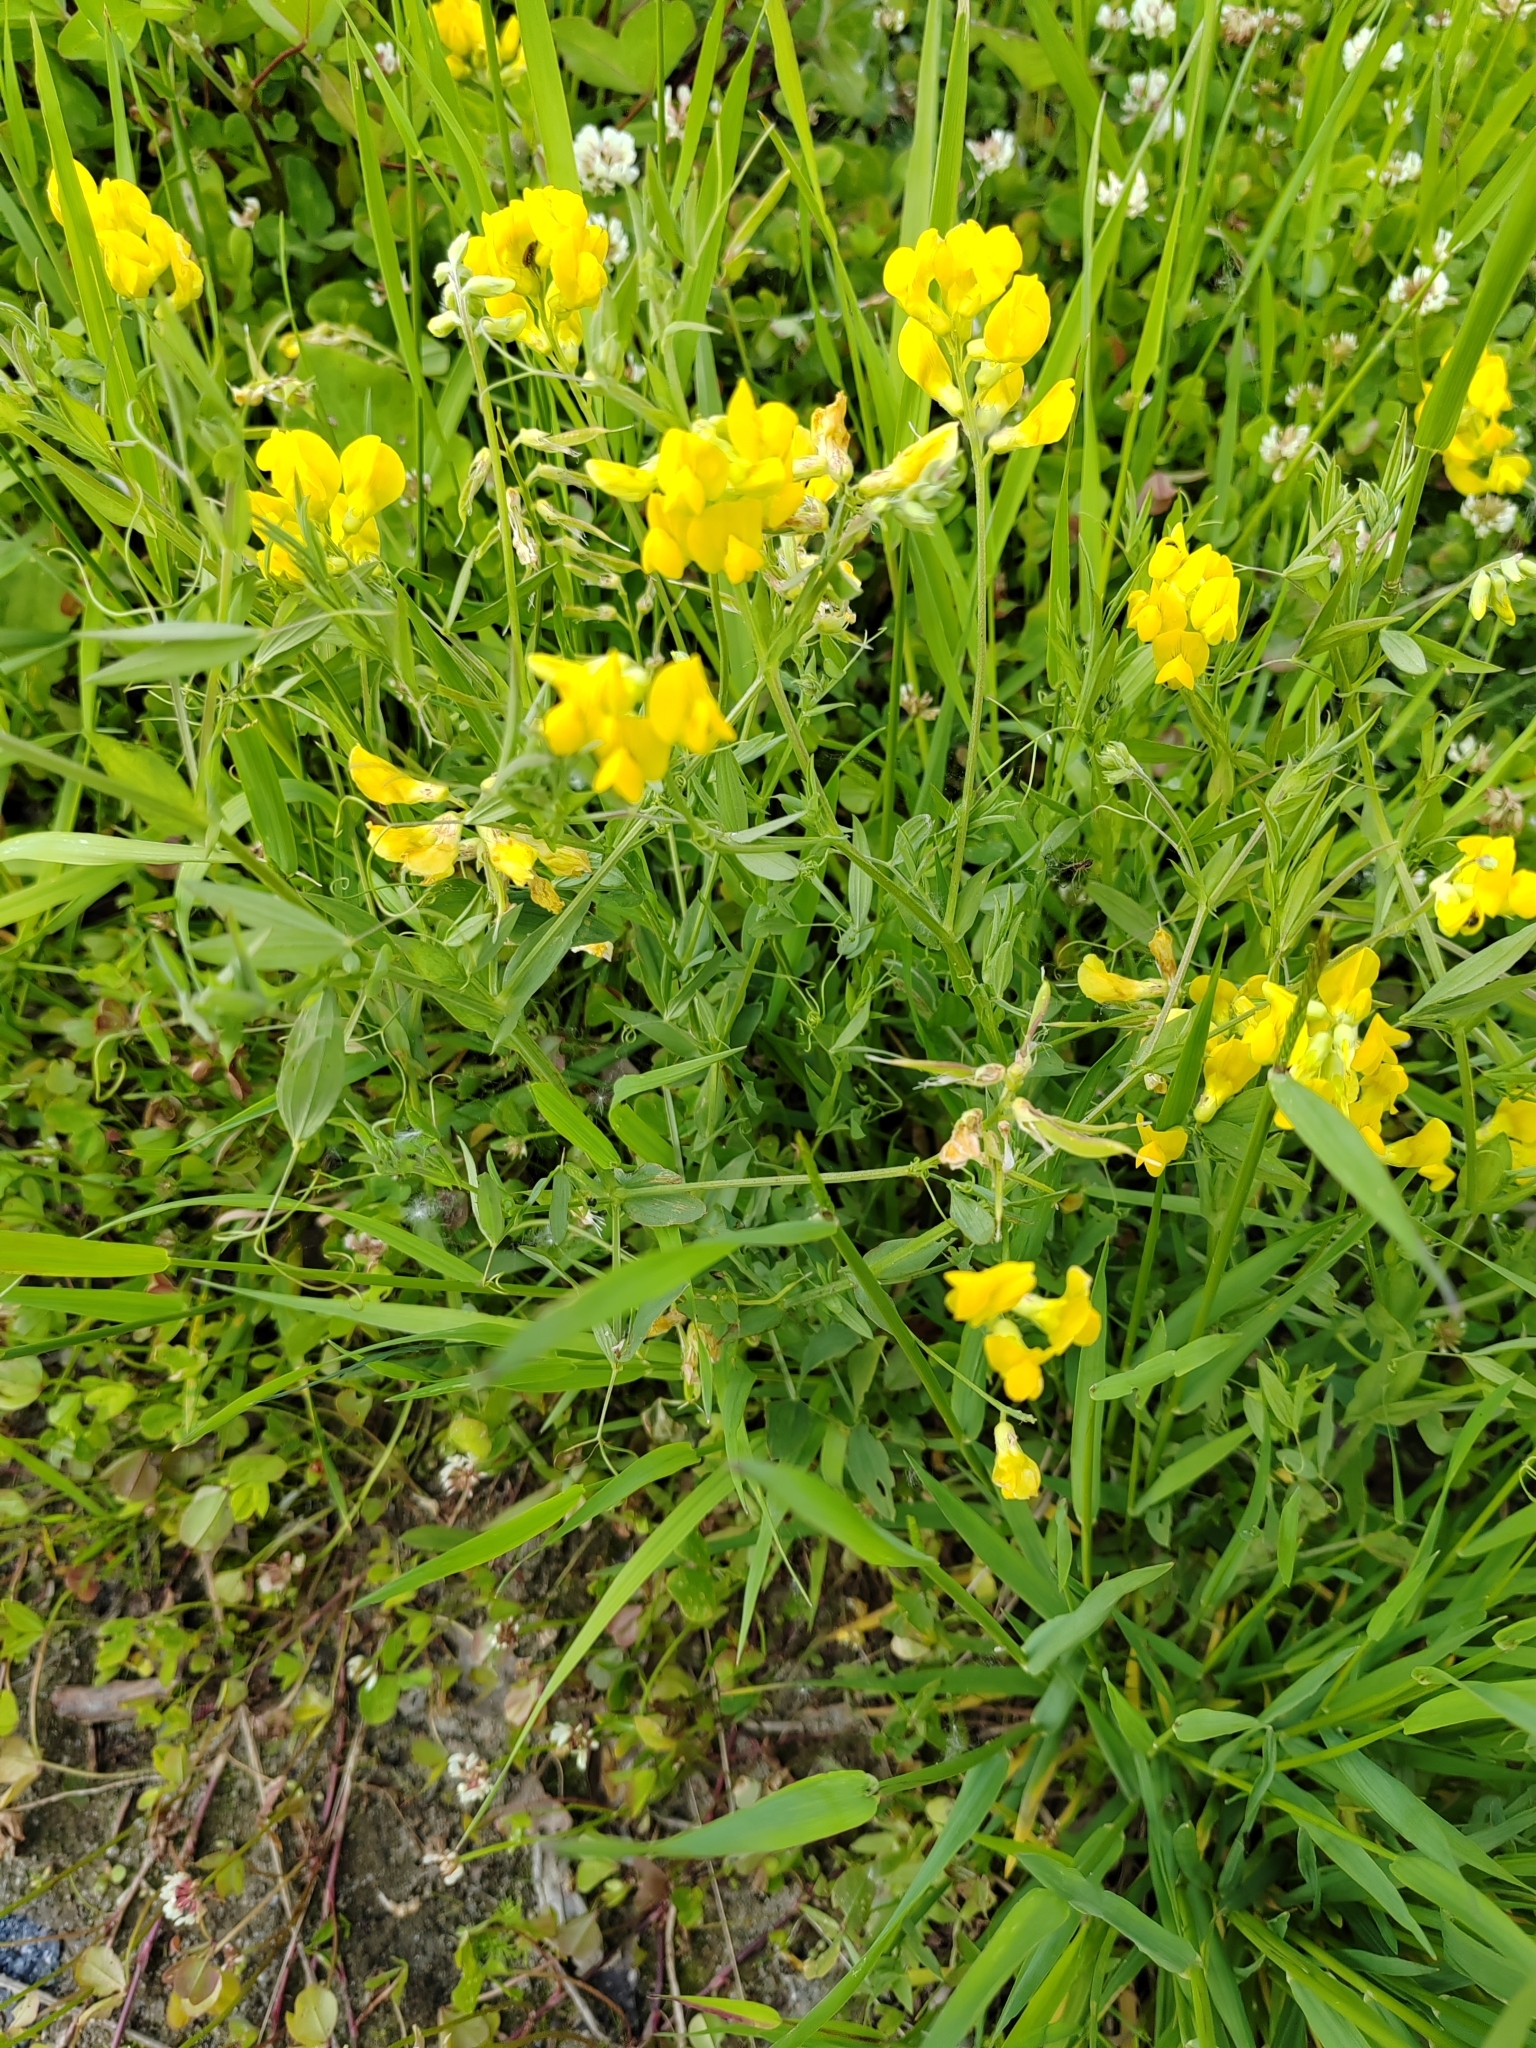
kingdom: Plantae
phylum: Tracheophyta
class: Magnoliopsida
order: Fabales
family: Fabaceae
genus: Lathyrus
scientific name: Lathyrus pratensis
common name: Meadow vetchling
